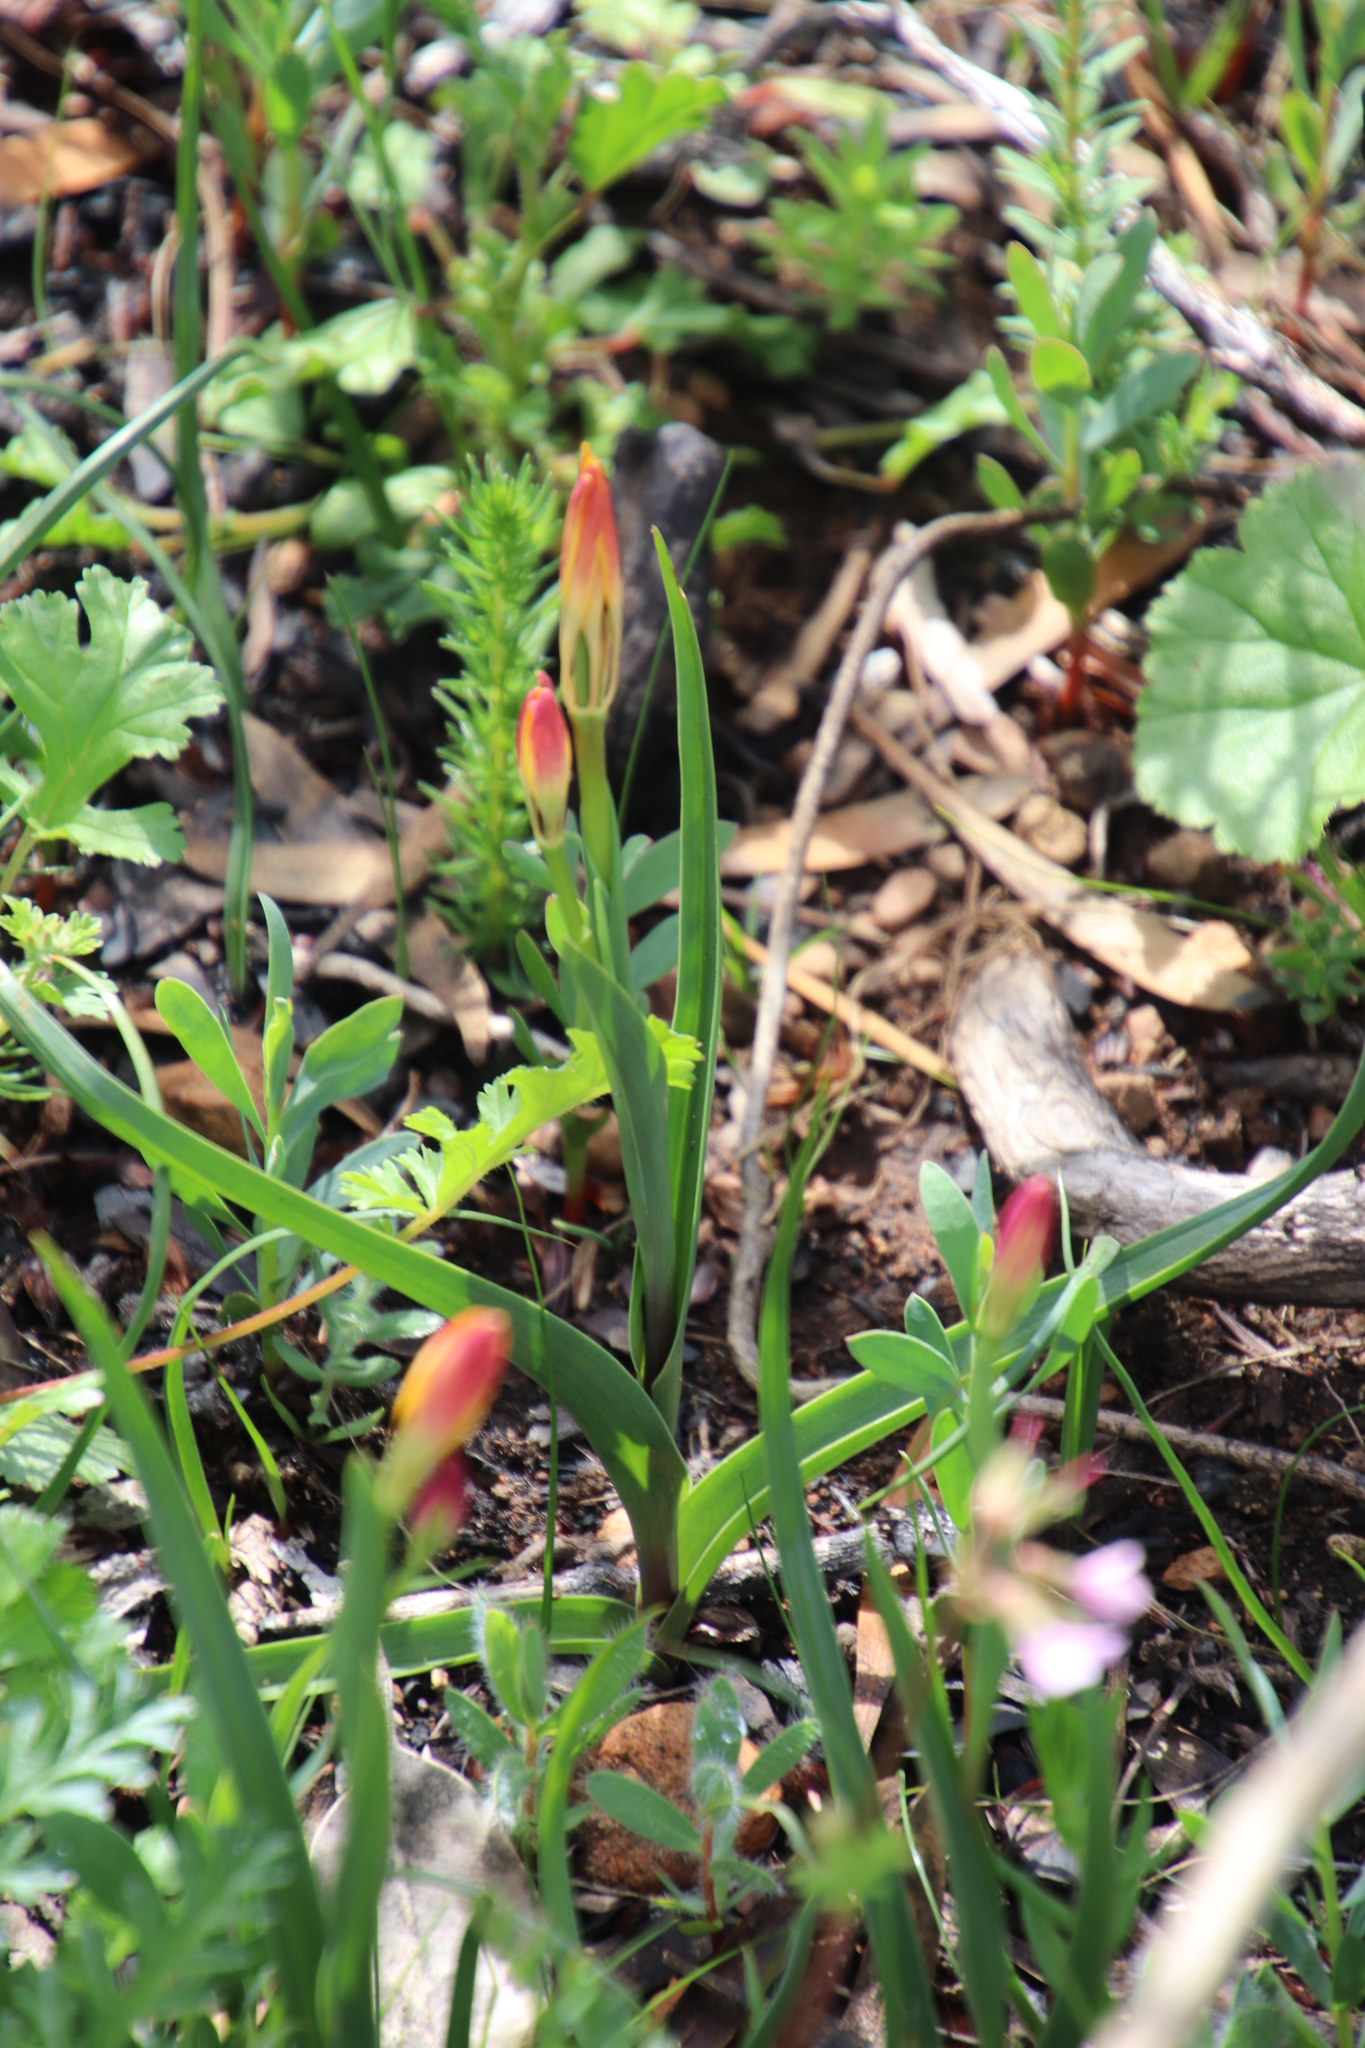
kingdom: Plantae
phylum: Tracheophyta
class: Liliopsida
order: Liliales
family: Colchicaceae
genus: Baeometra
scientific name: Baeometra uniflora
